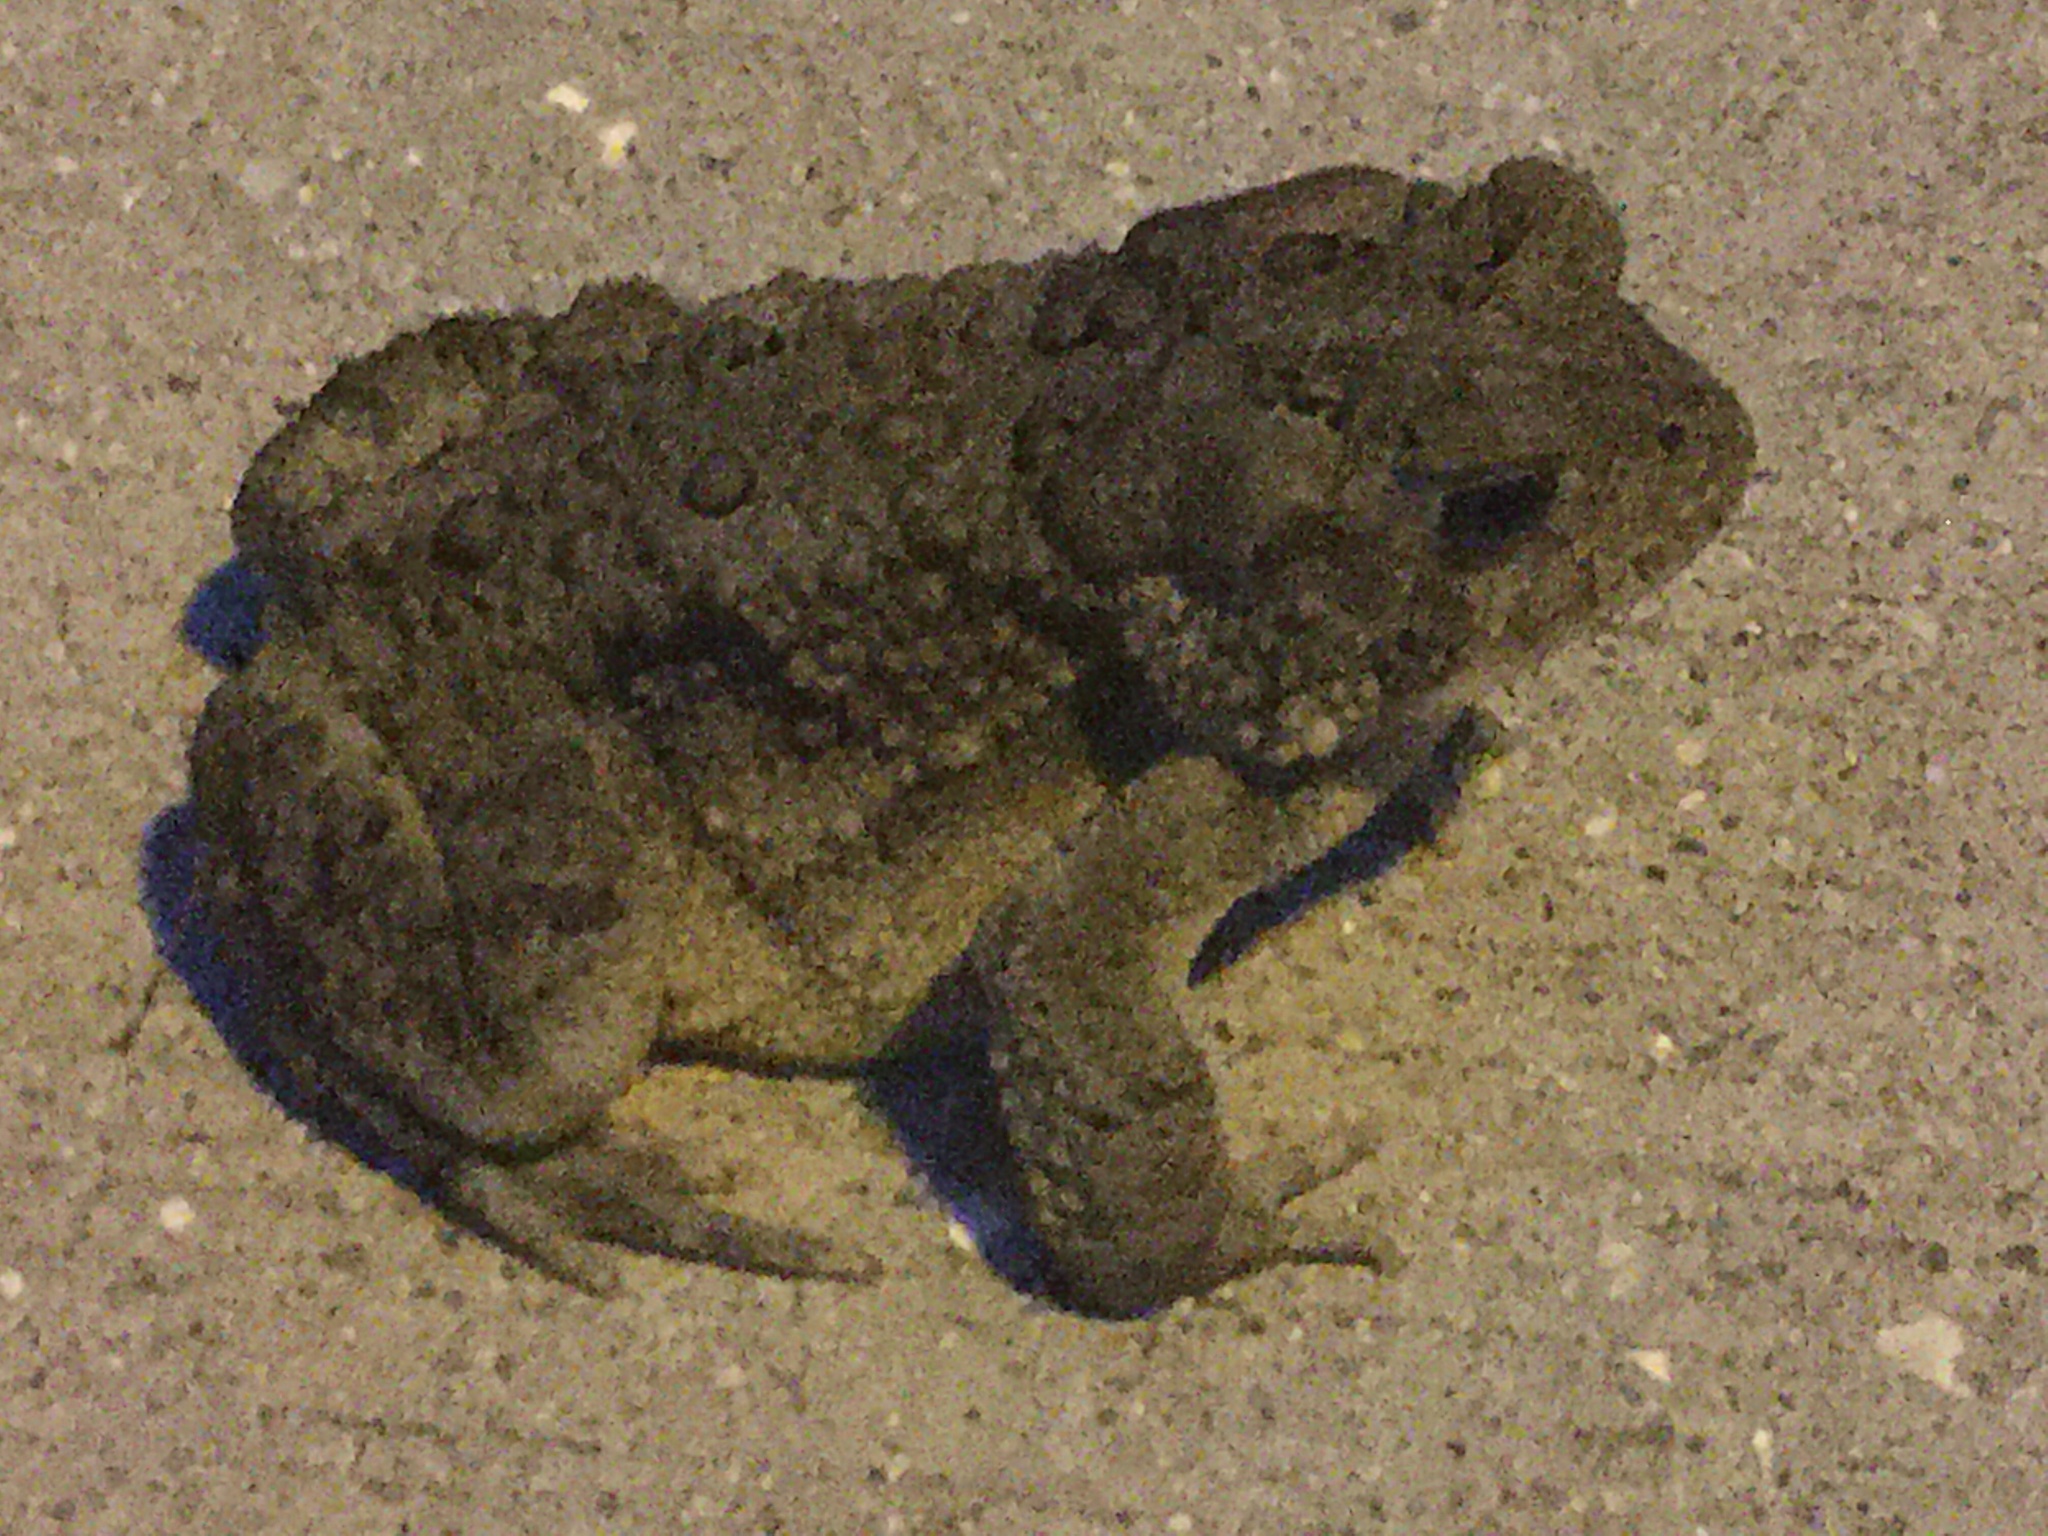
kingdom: Animalia
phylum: Chordata
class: Amphibia
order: Anura
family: Bufonidae
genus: Anaxyrus
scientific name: Anaxyrus americanus
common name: American toad
